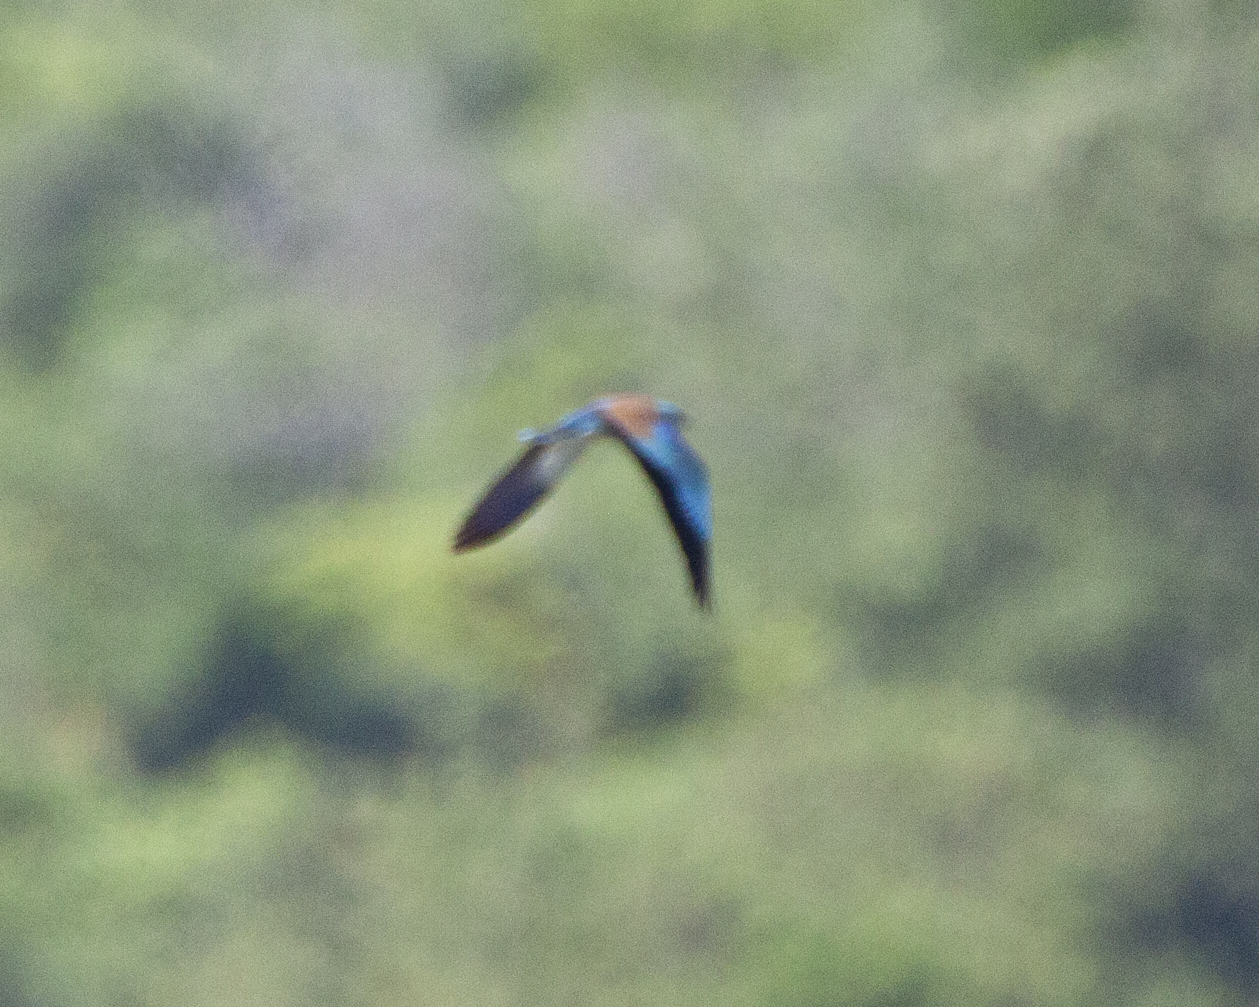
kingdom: Animalia
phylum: Chordata
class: Aves
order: Coraciiformes
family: Coraciidae
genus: Coracias
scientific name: Coracias garrulus
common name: European roller
